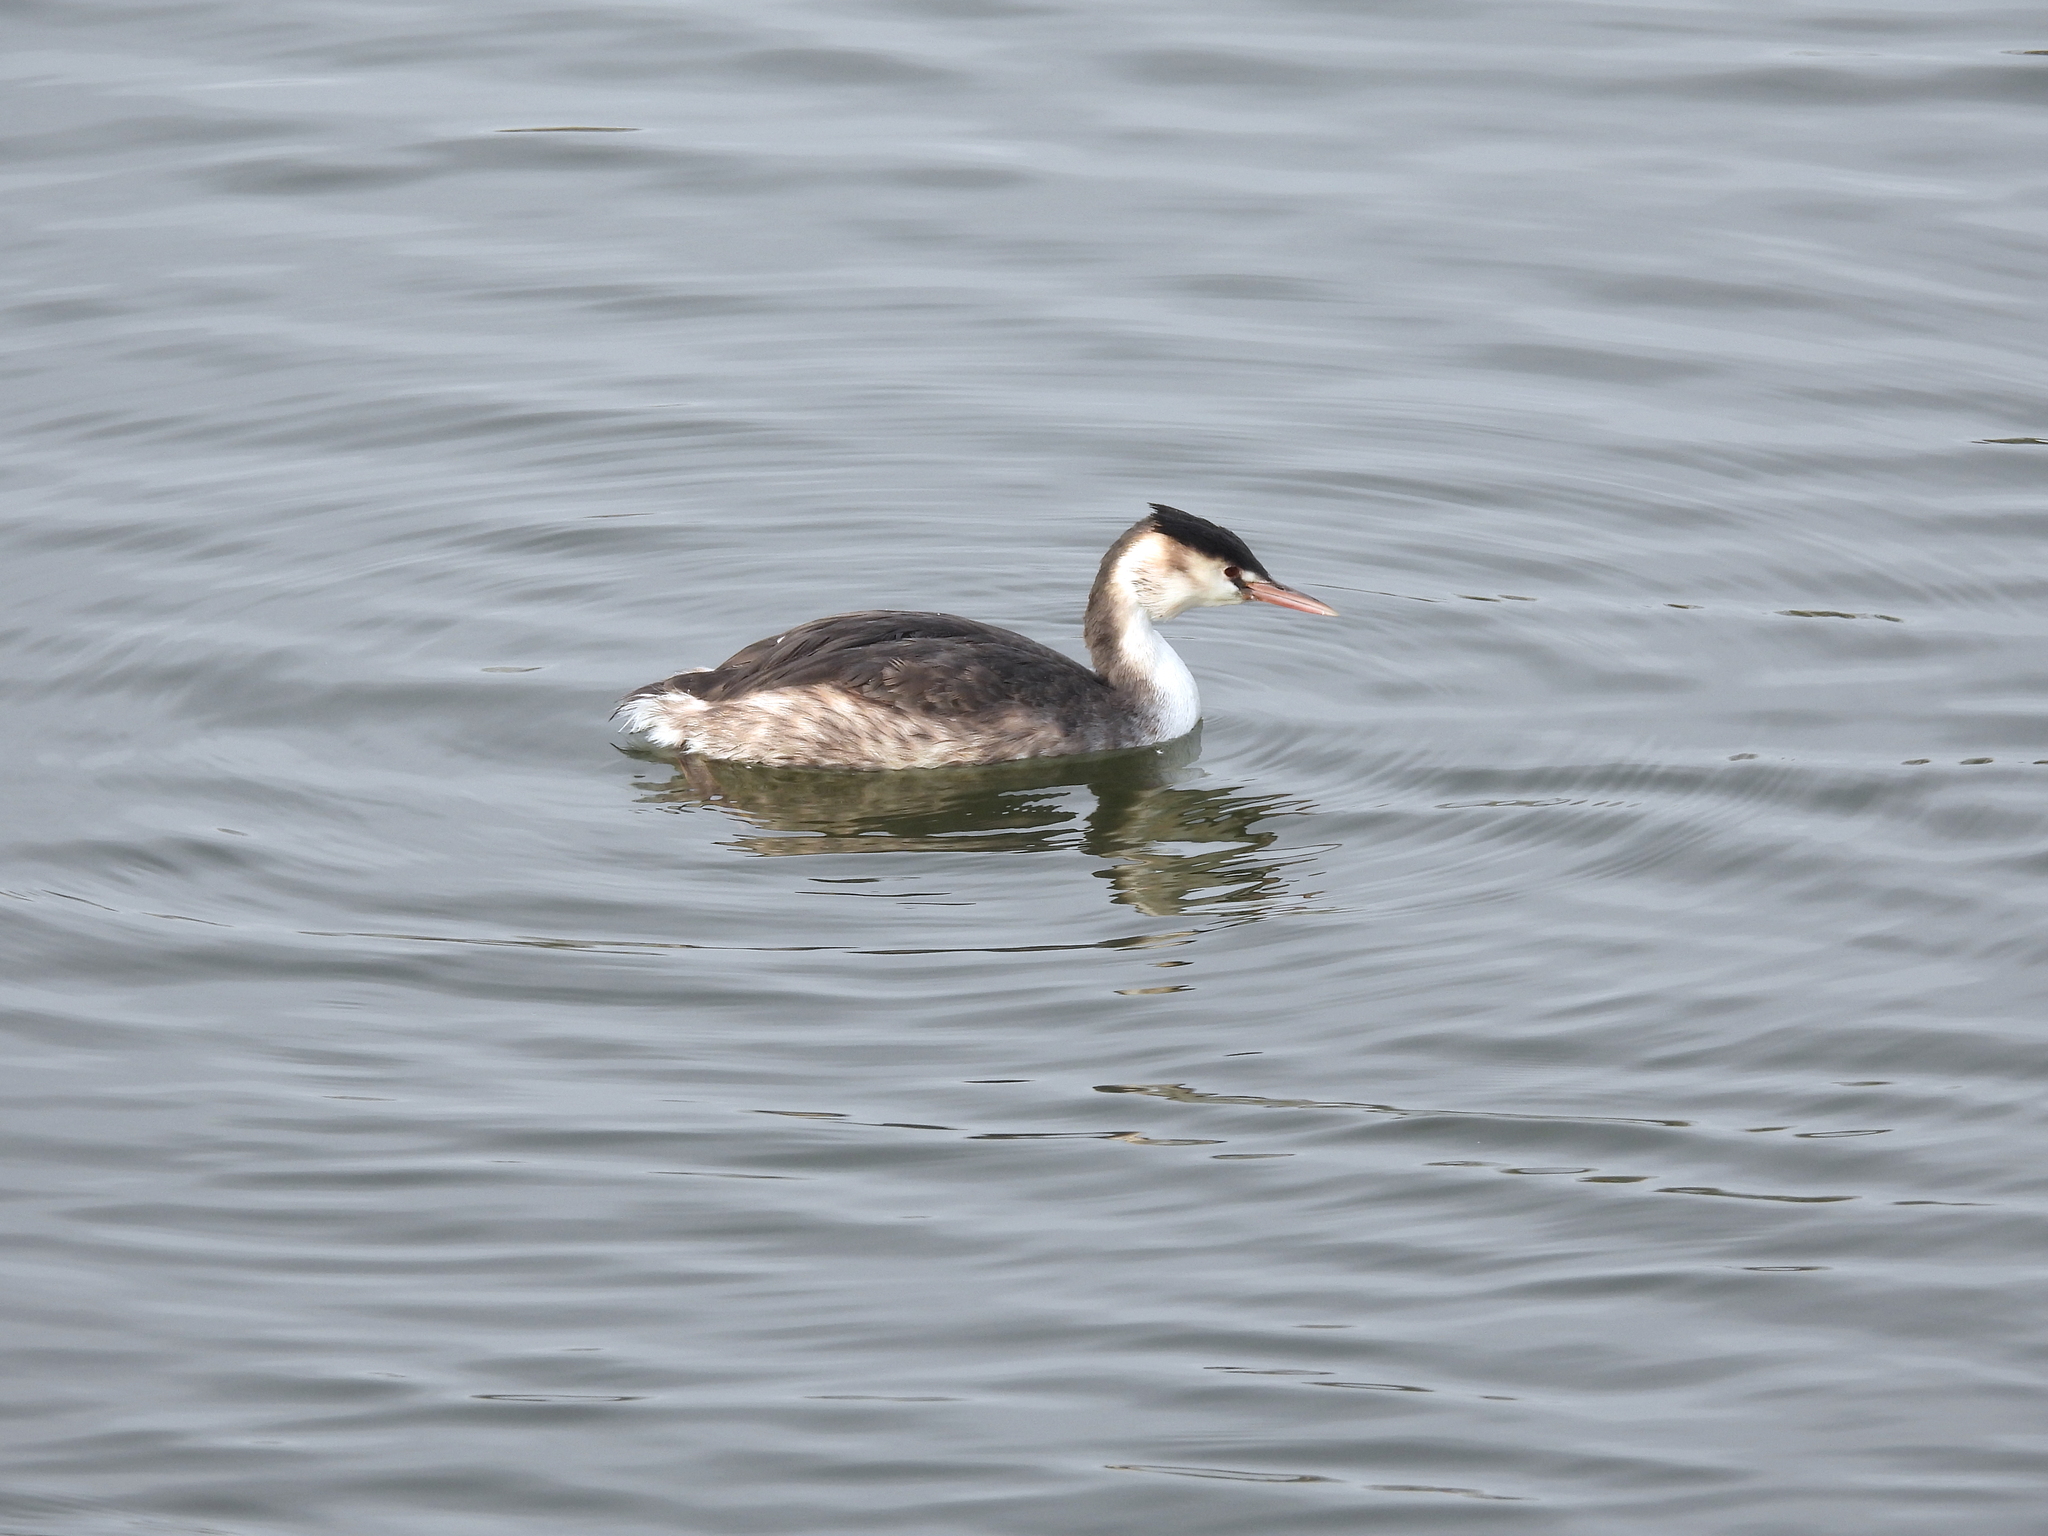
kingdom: Animalia
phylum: Chordata
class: Aves
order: Podicipediformes
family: Podicipedidae
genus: Podiceps
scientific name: Podiceps cristatus
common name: Great crested grebe
